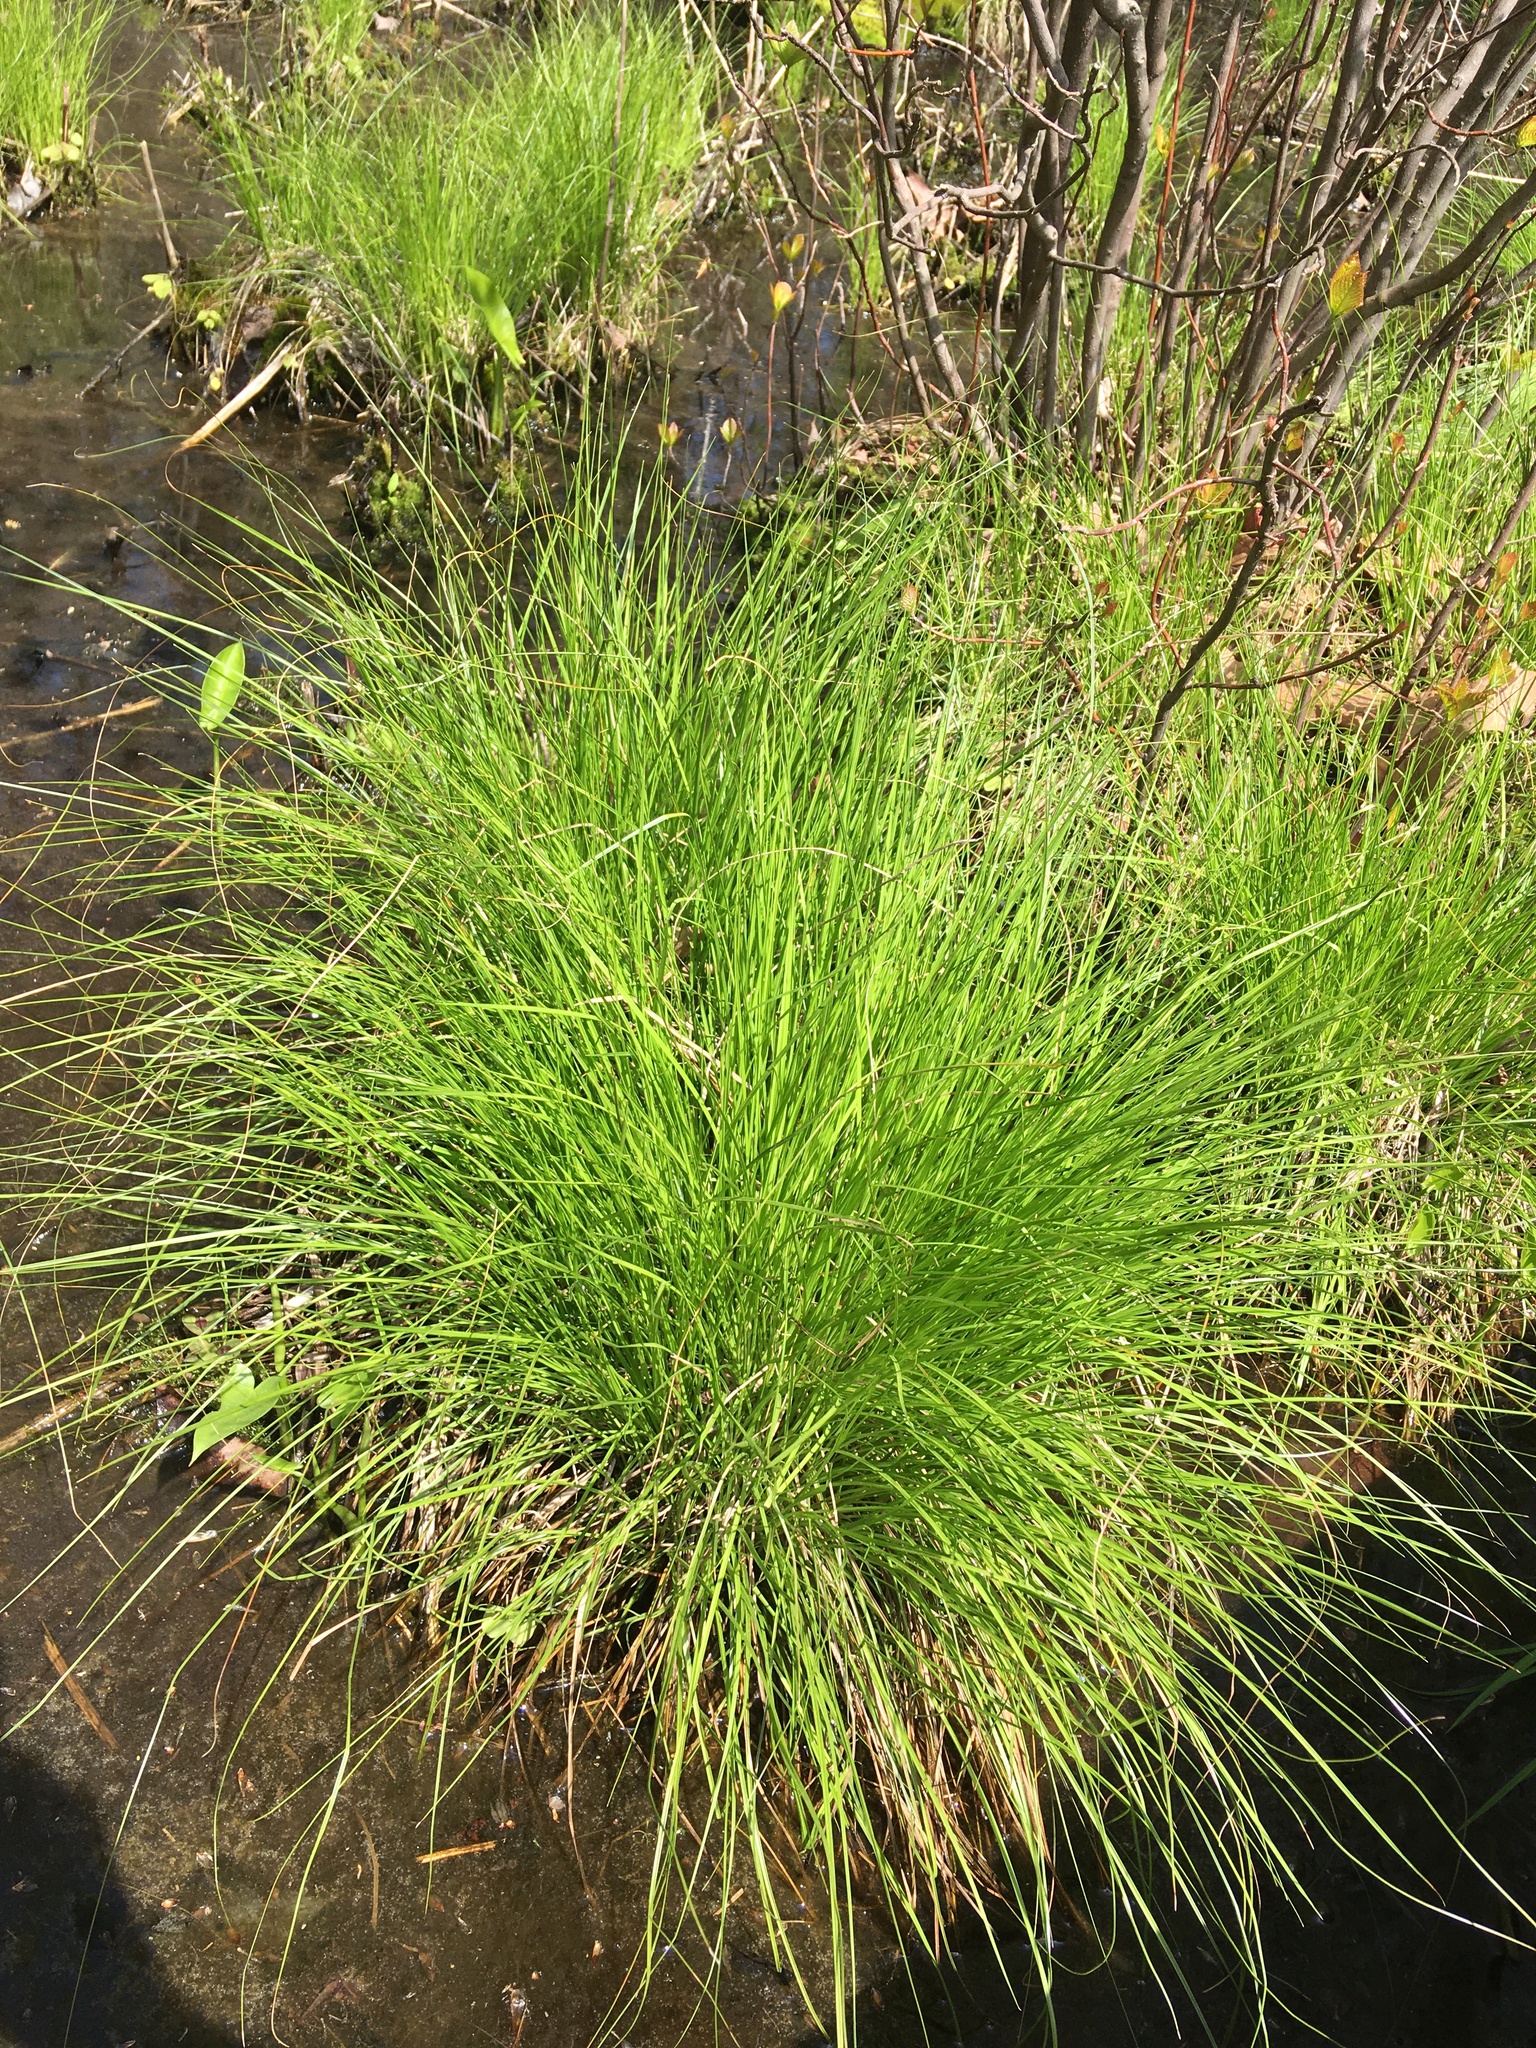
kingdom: Plantae
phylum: Tracheophyta
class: Liliopsida
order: Poales
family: Cyperaceae
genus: Carex
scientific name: Carex stricta
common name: Hummock sedge
